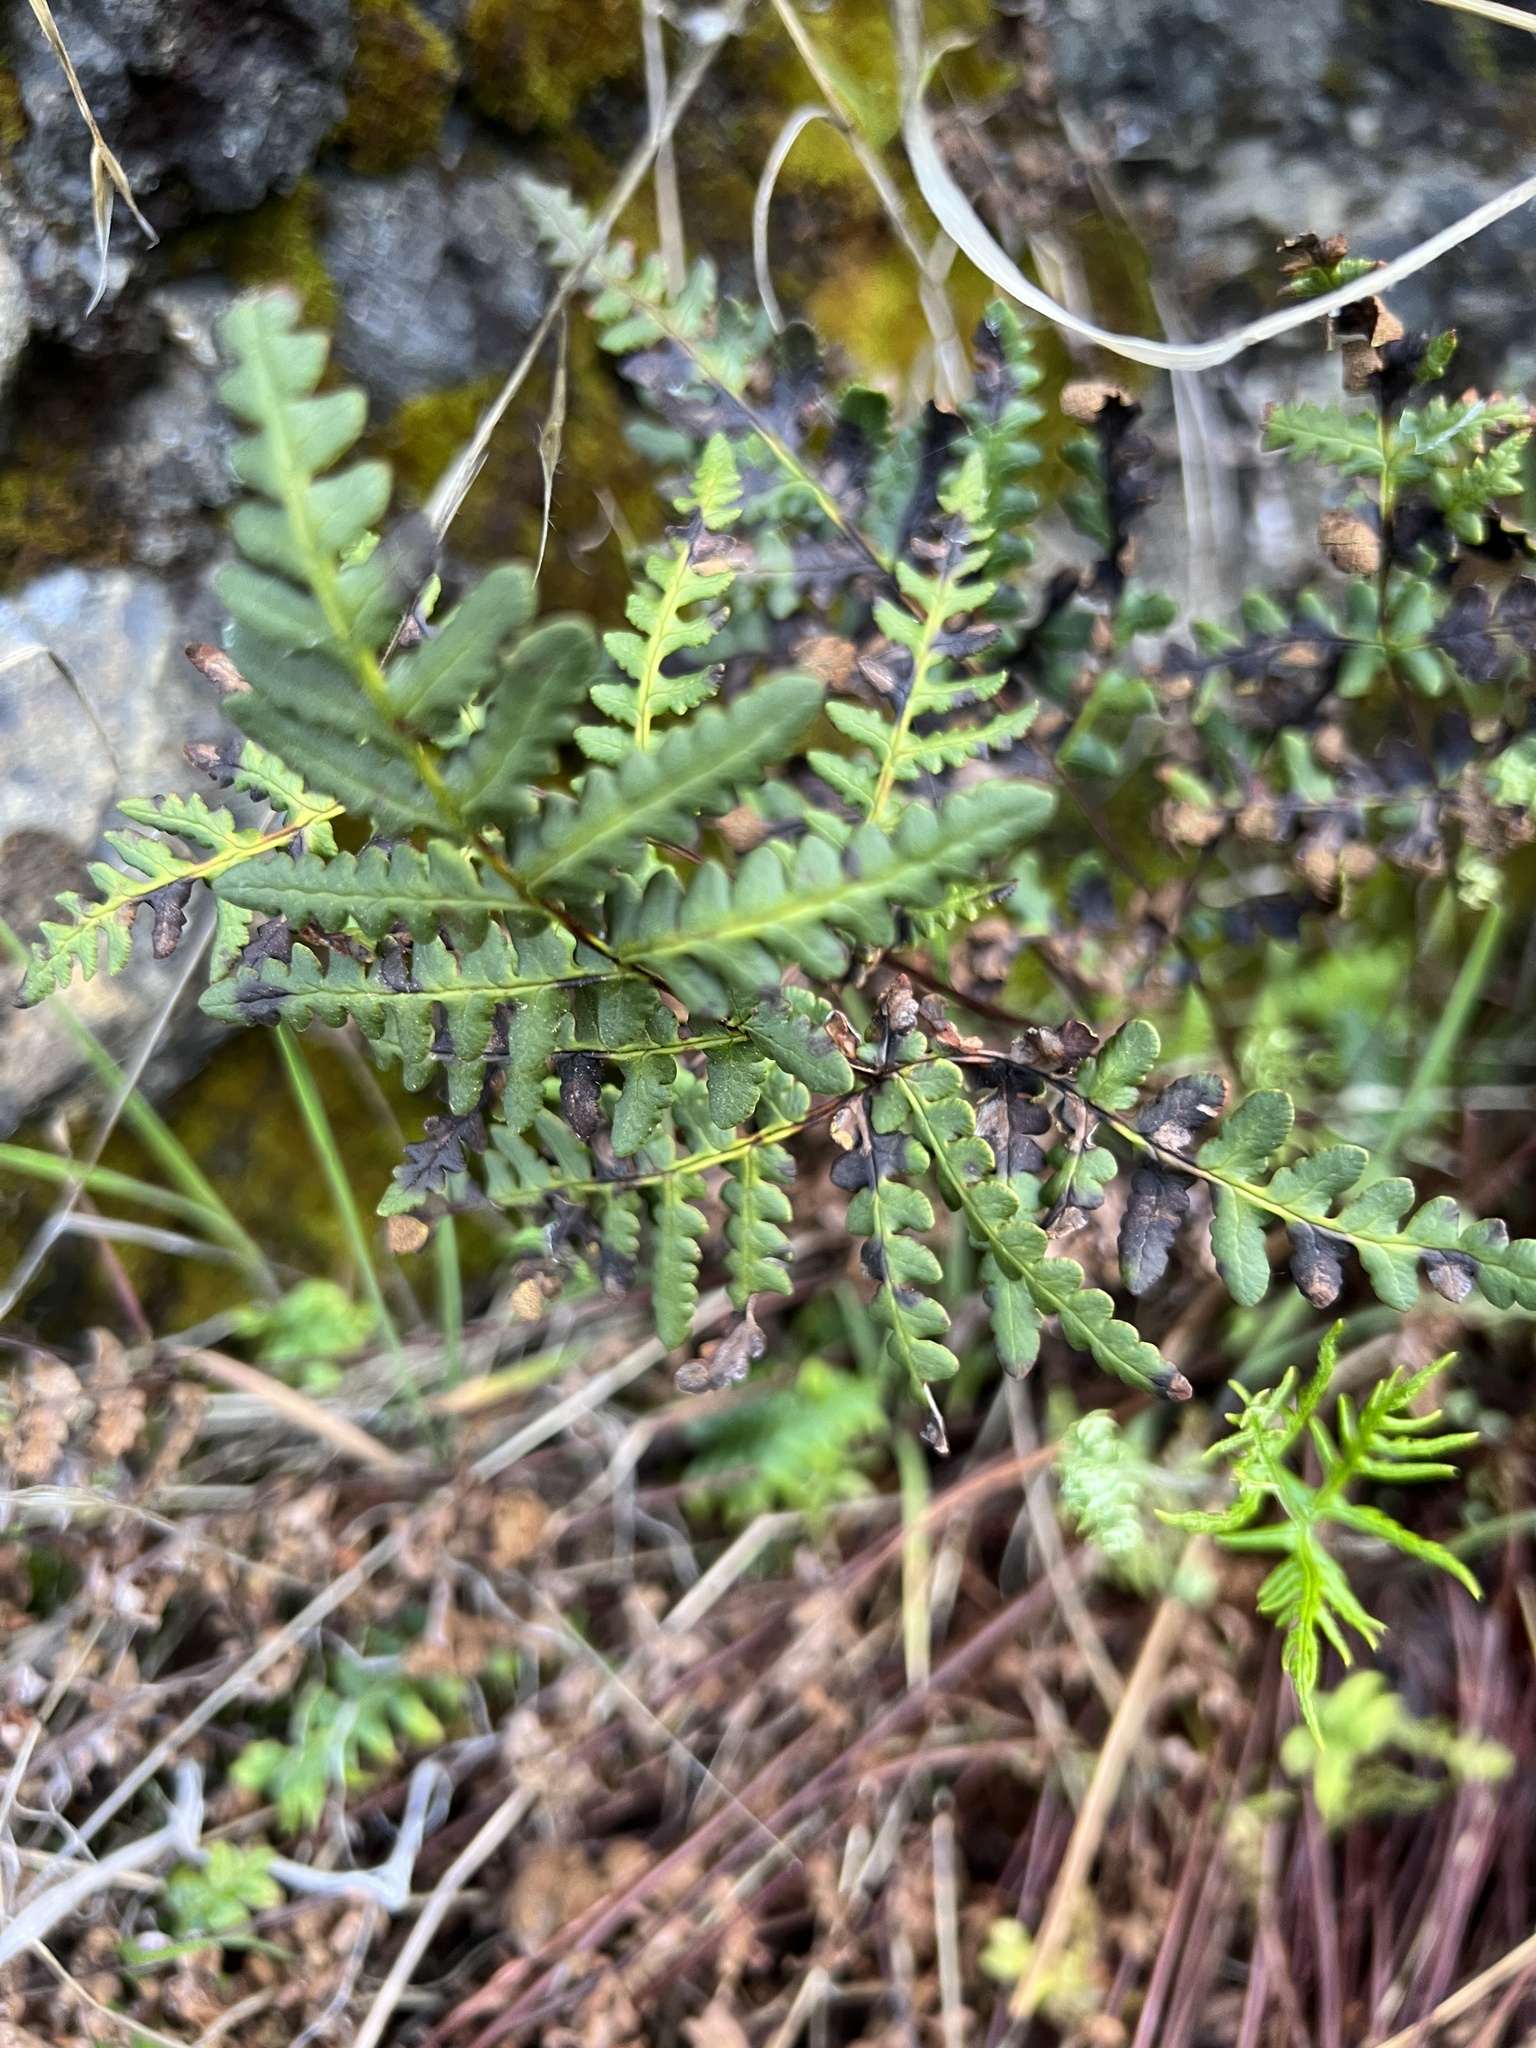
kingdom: Plantae
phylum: Tracheophyta
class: Polypodiopsida
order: Polypodiales
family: Pteridaceae
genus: Pentagramma
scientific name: Pentagramma triangularis
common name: Gold fern
